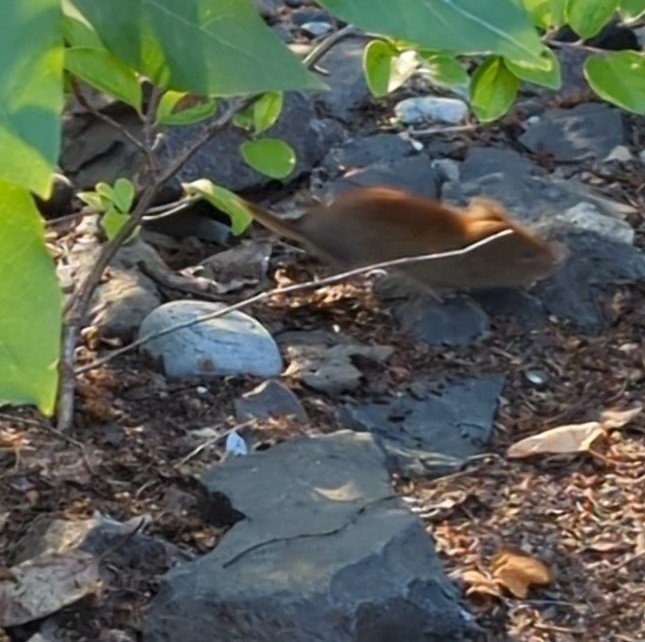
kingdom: Animalia
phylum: Chordata
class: Mammalia
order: Rodentia
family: Cricetidae
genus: Myodes
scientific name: Myodes rutilus
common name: Northern red-backed vole
